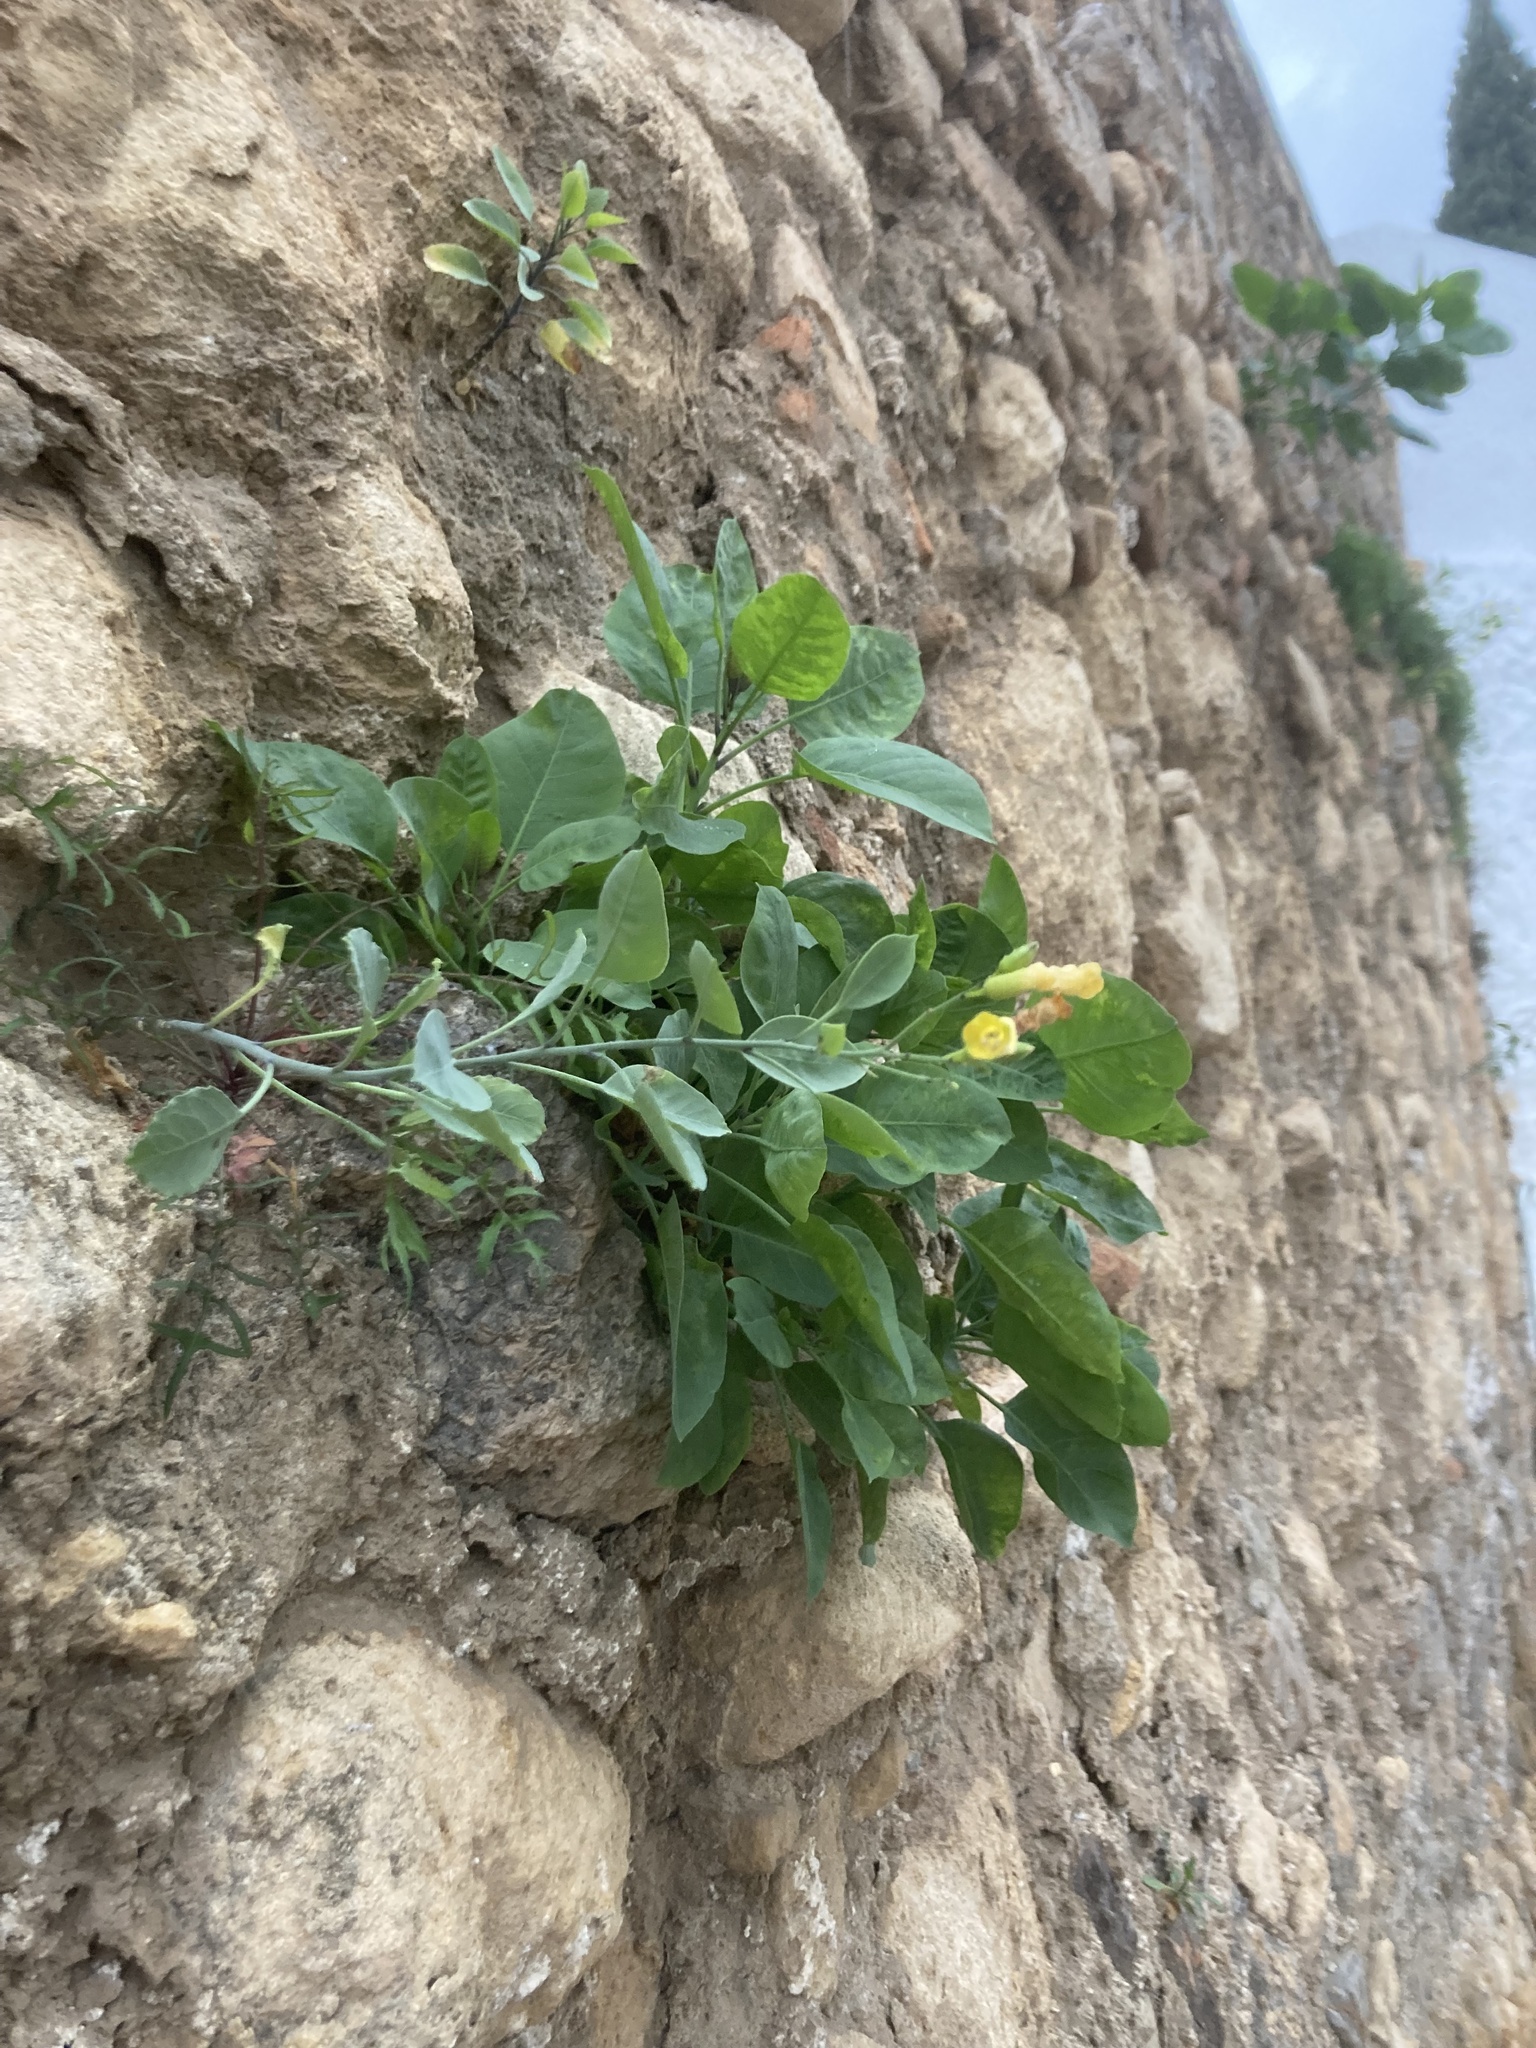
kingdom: Plantae
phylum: Tracheophyta
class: Magnoliopsida
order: Solanales
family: Solanaceae
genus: Nicotiana
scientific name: Nicotiana glauca
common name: Tree tobacco
